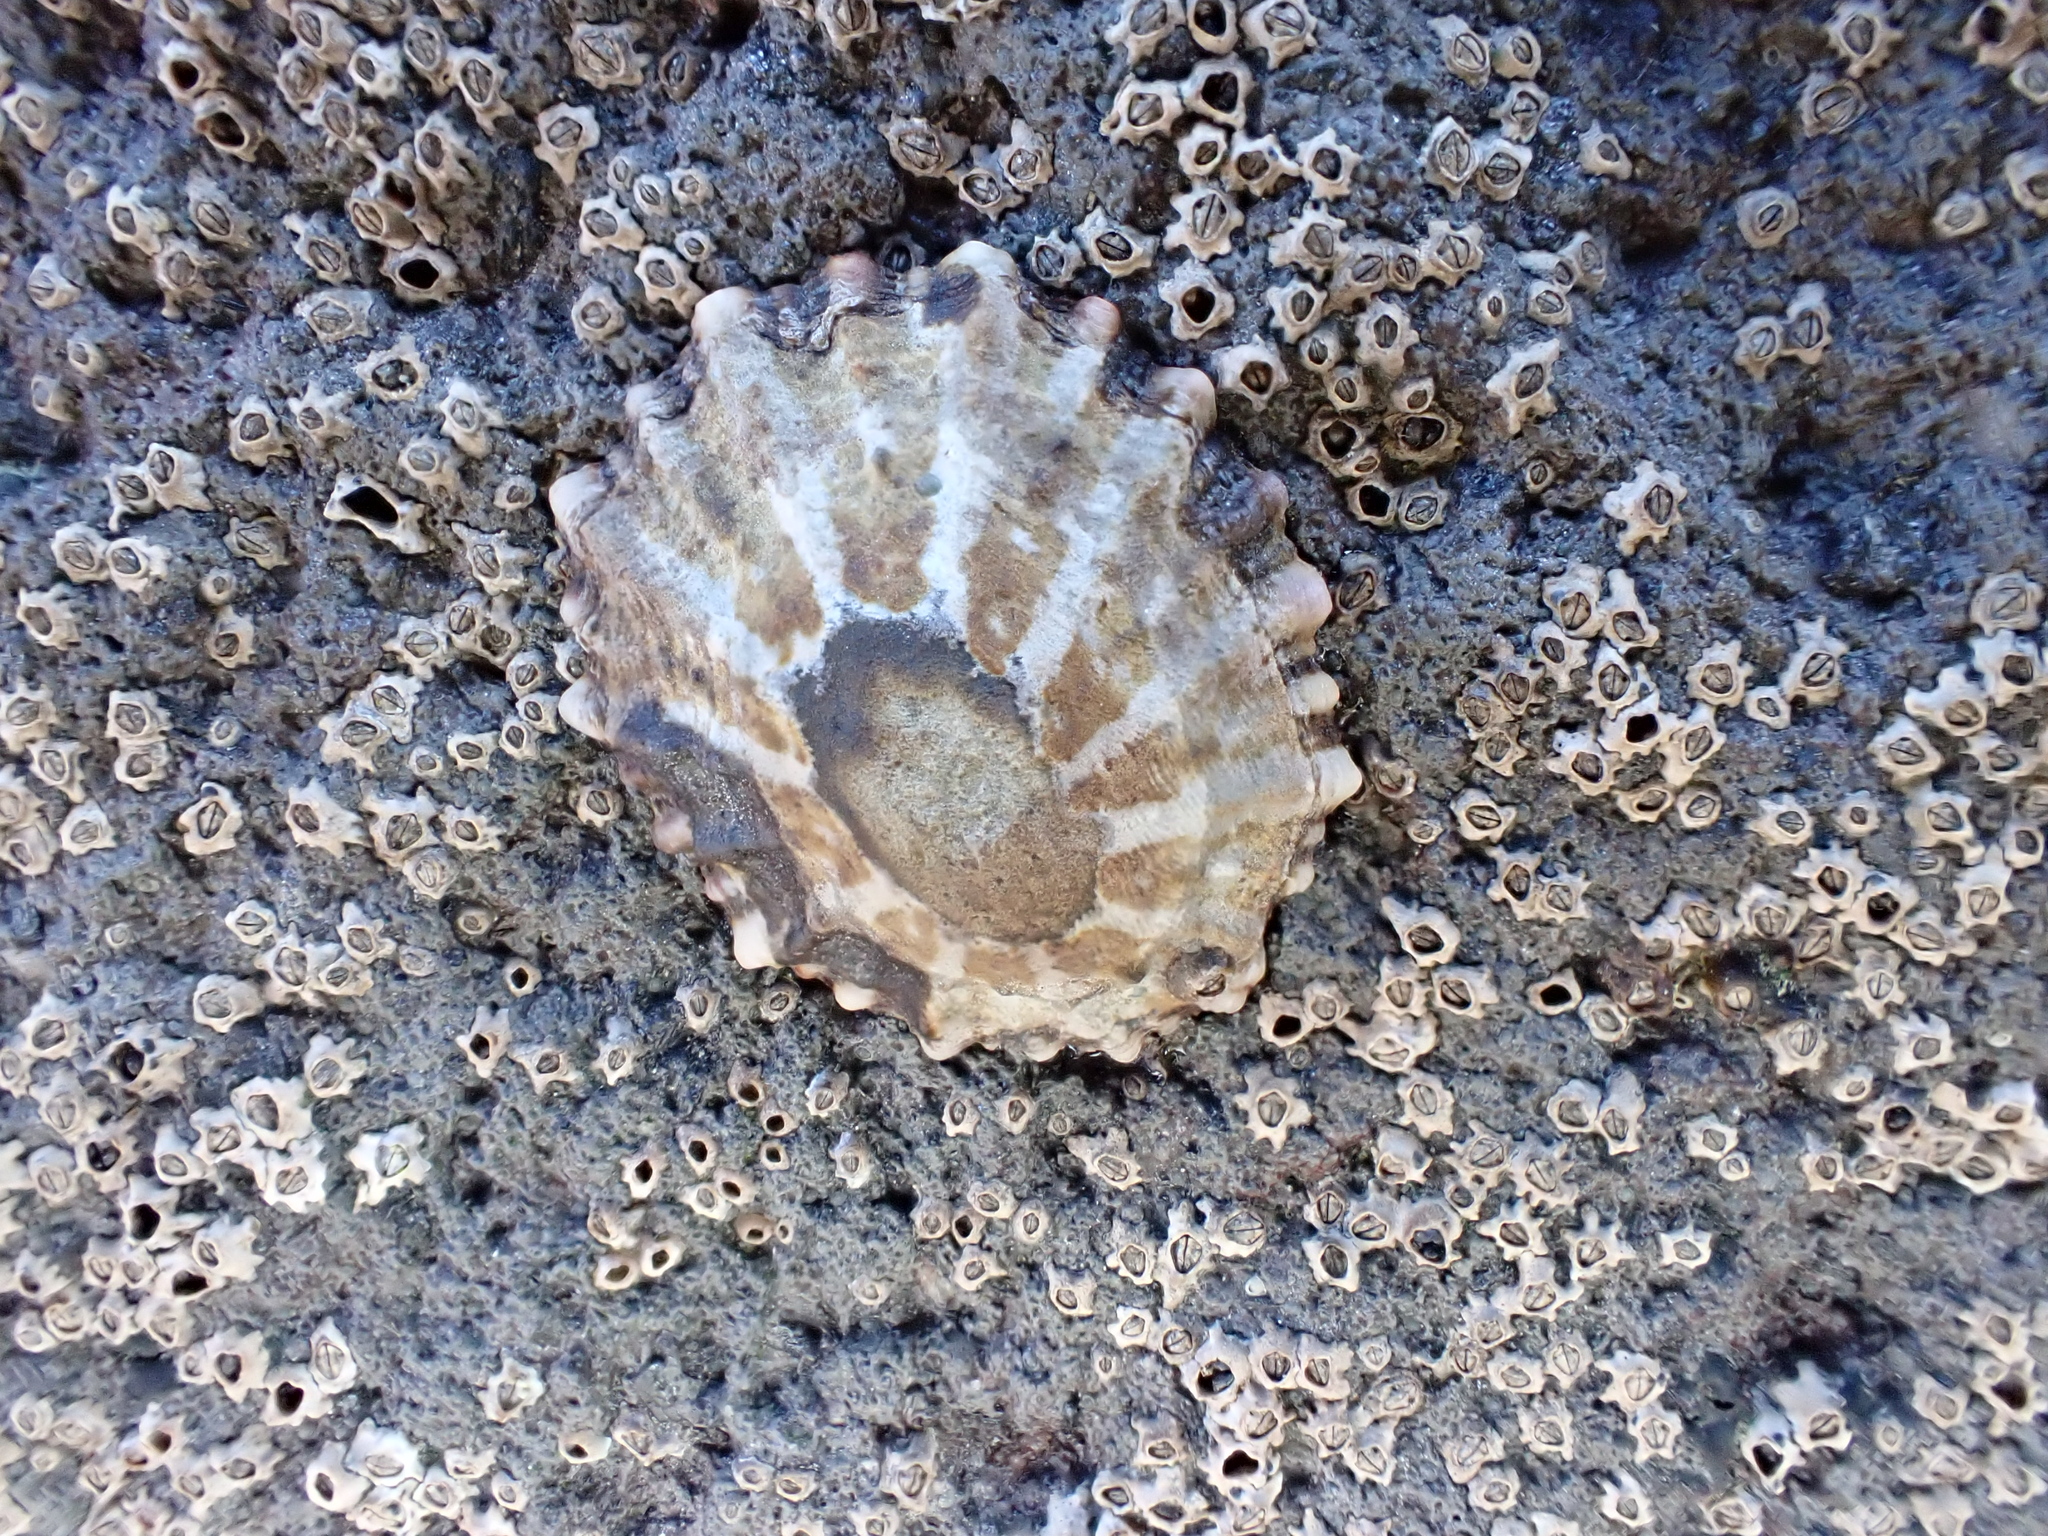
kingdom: Animalia
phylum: Mollusca
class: Gastropoda
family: Nacellidae
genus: Cellana
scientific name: Cellana ornata
